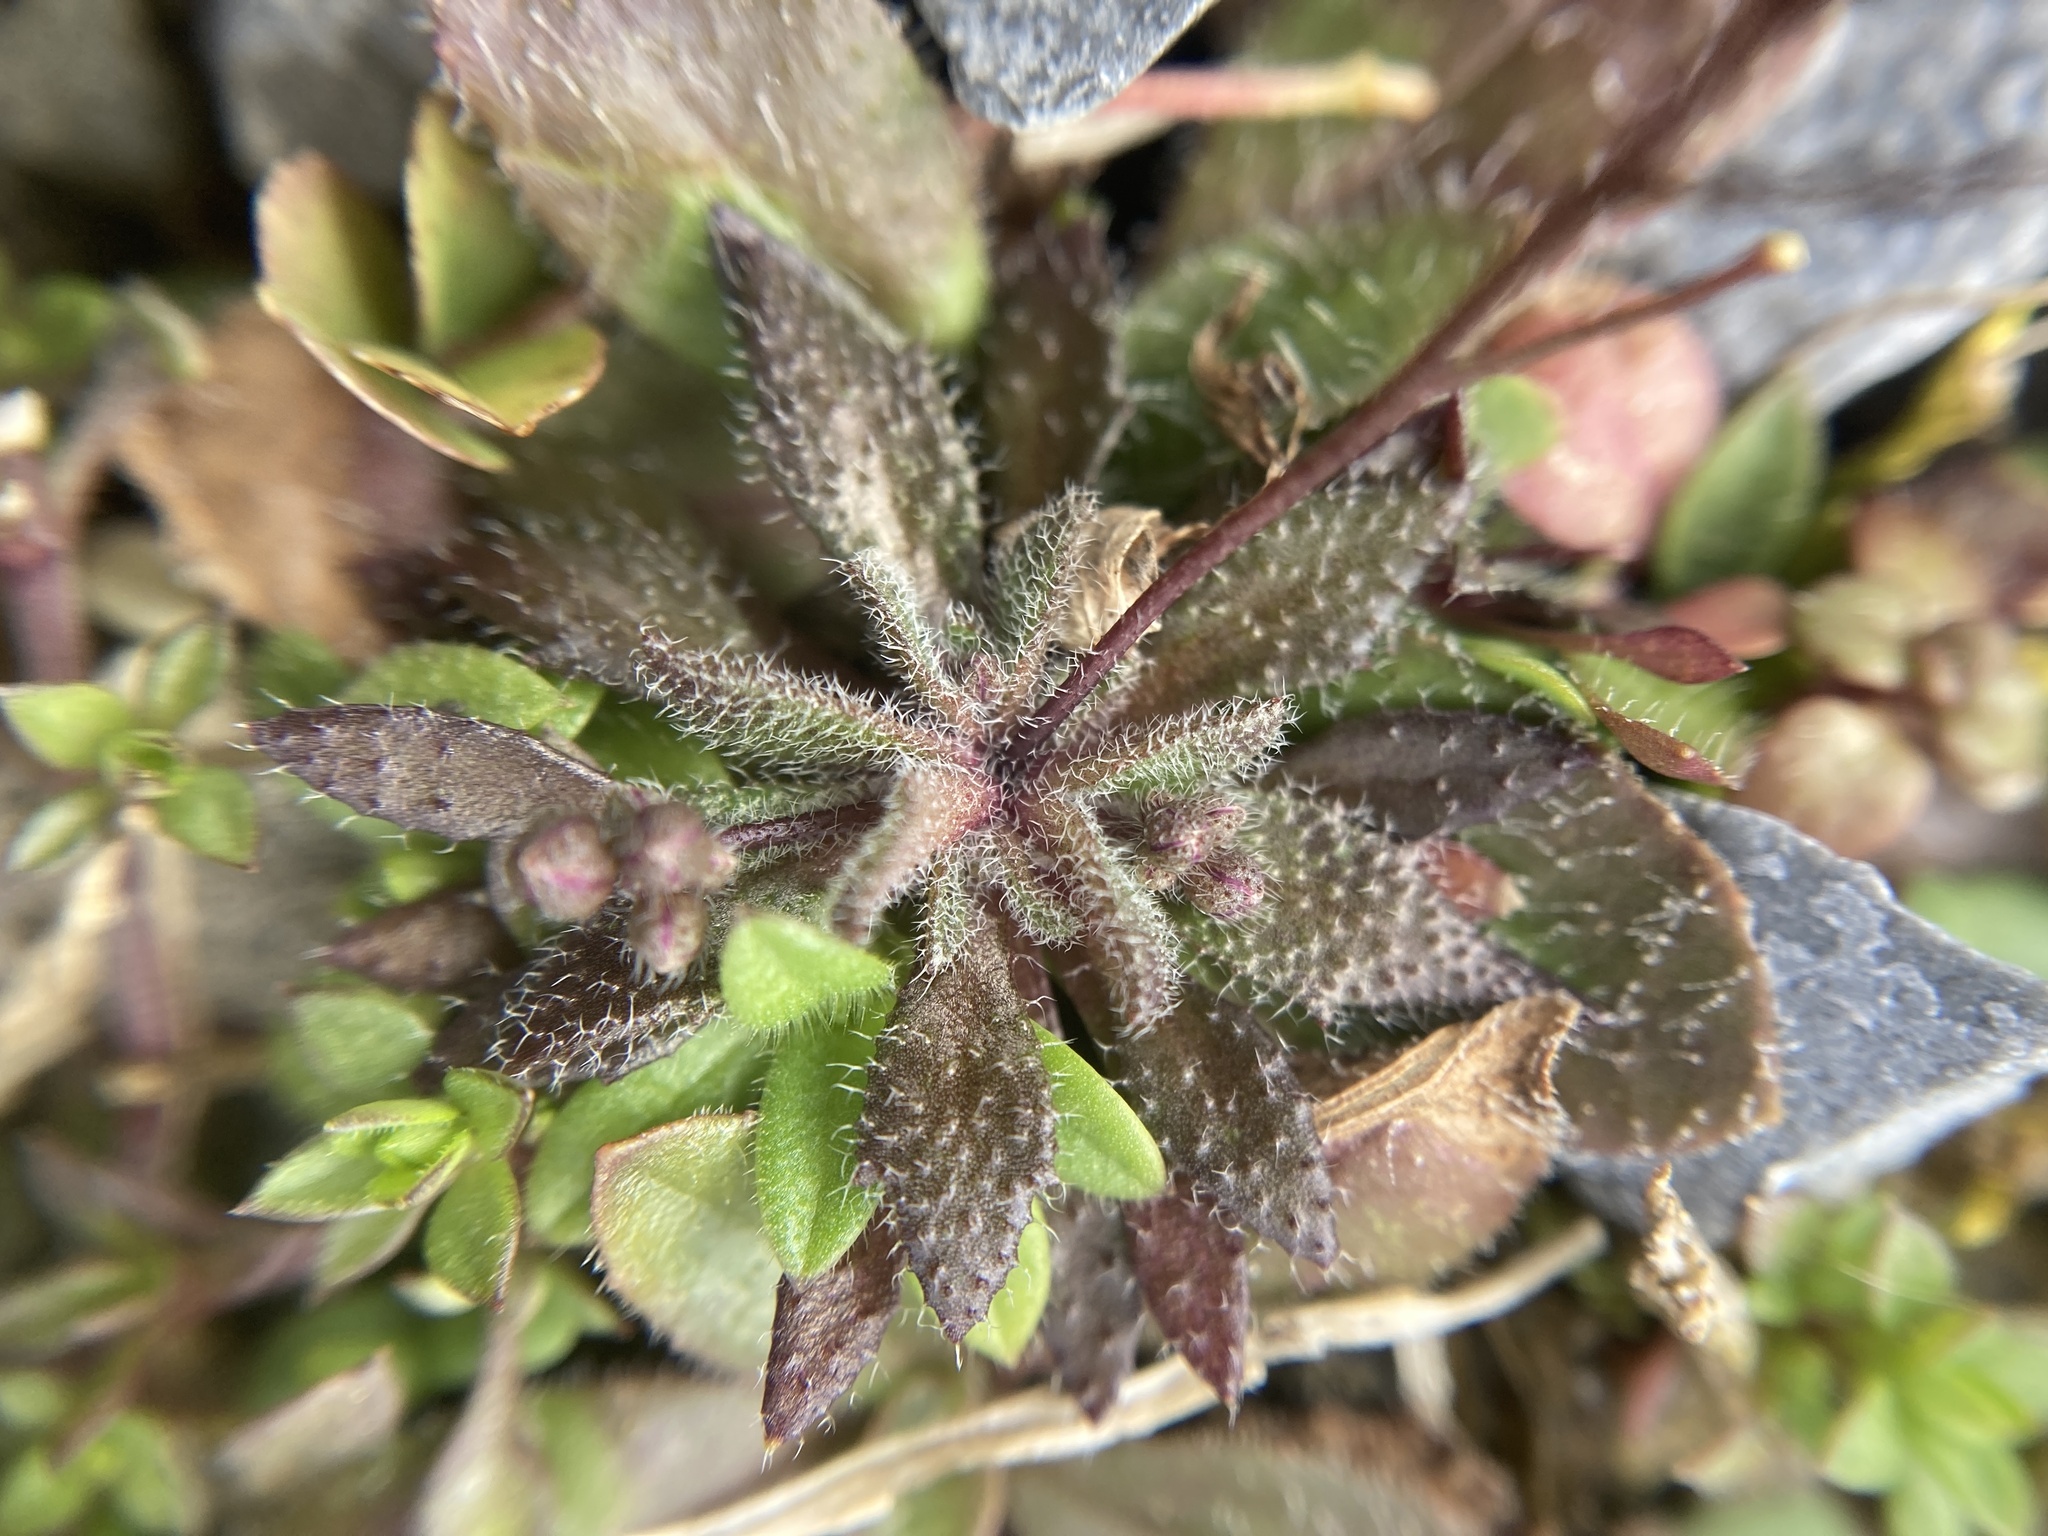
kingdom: Plantae
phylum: Tracheophyta
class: Magnoliopsida
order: Brassicales
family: Brassicaceae
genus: Draba
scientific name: Draba verna
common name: Spring draba
